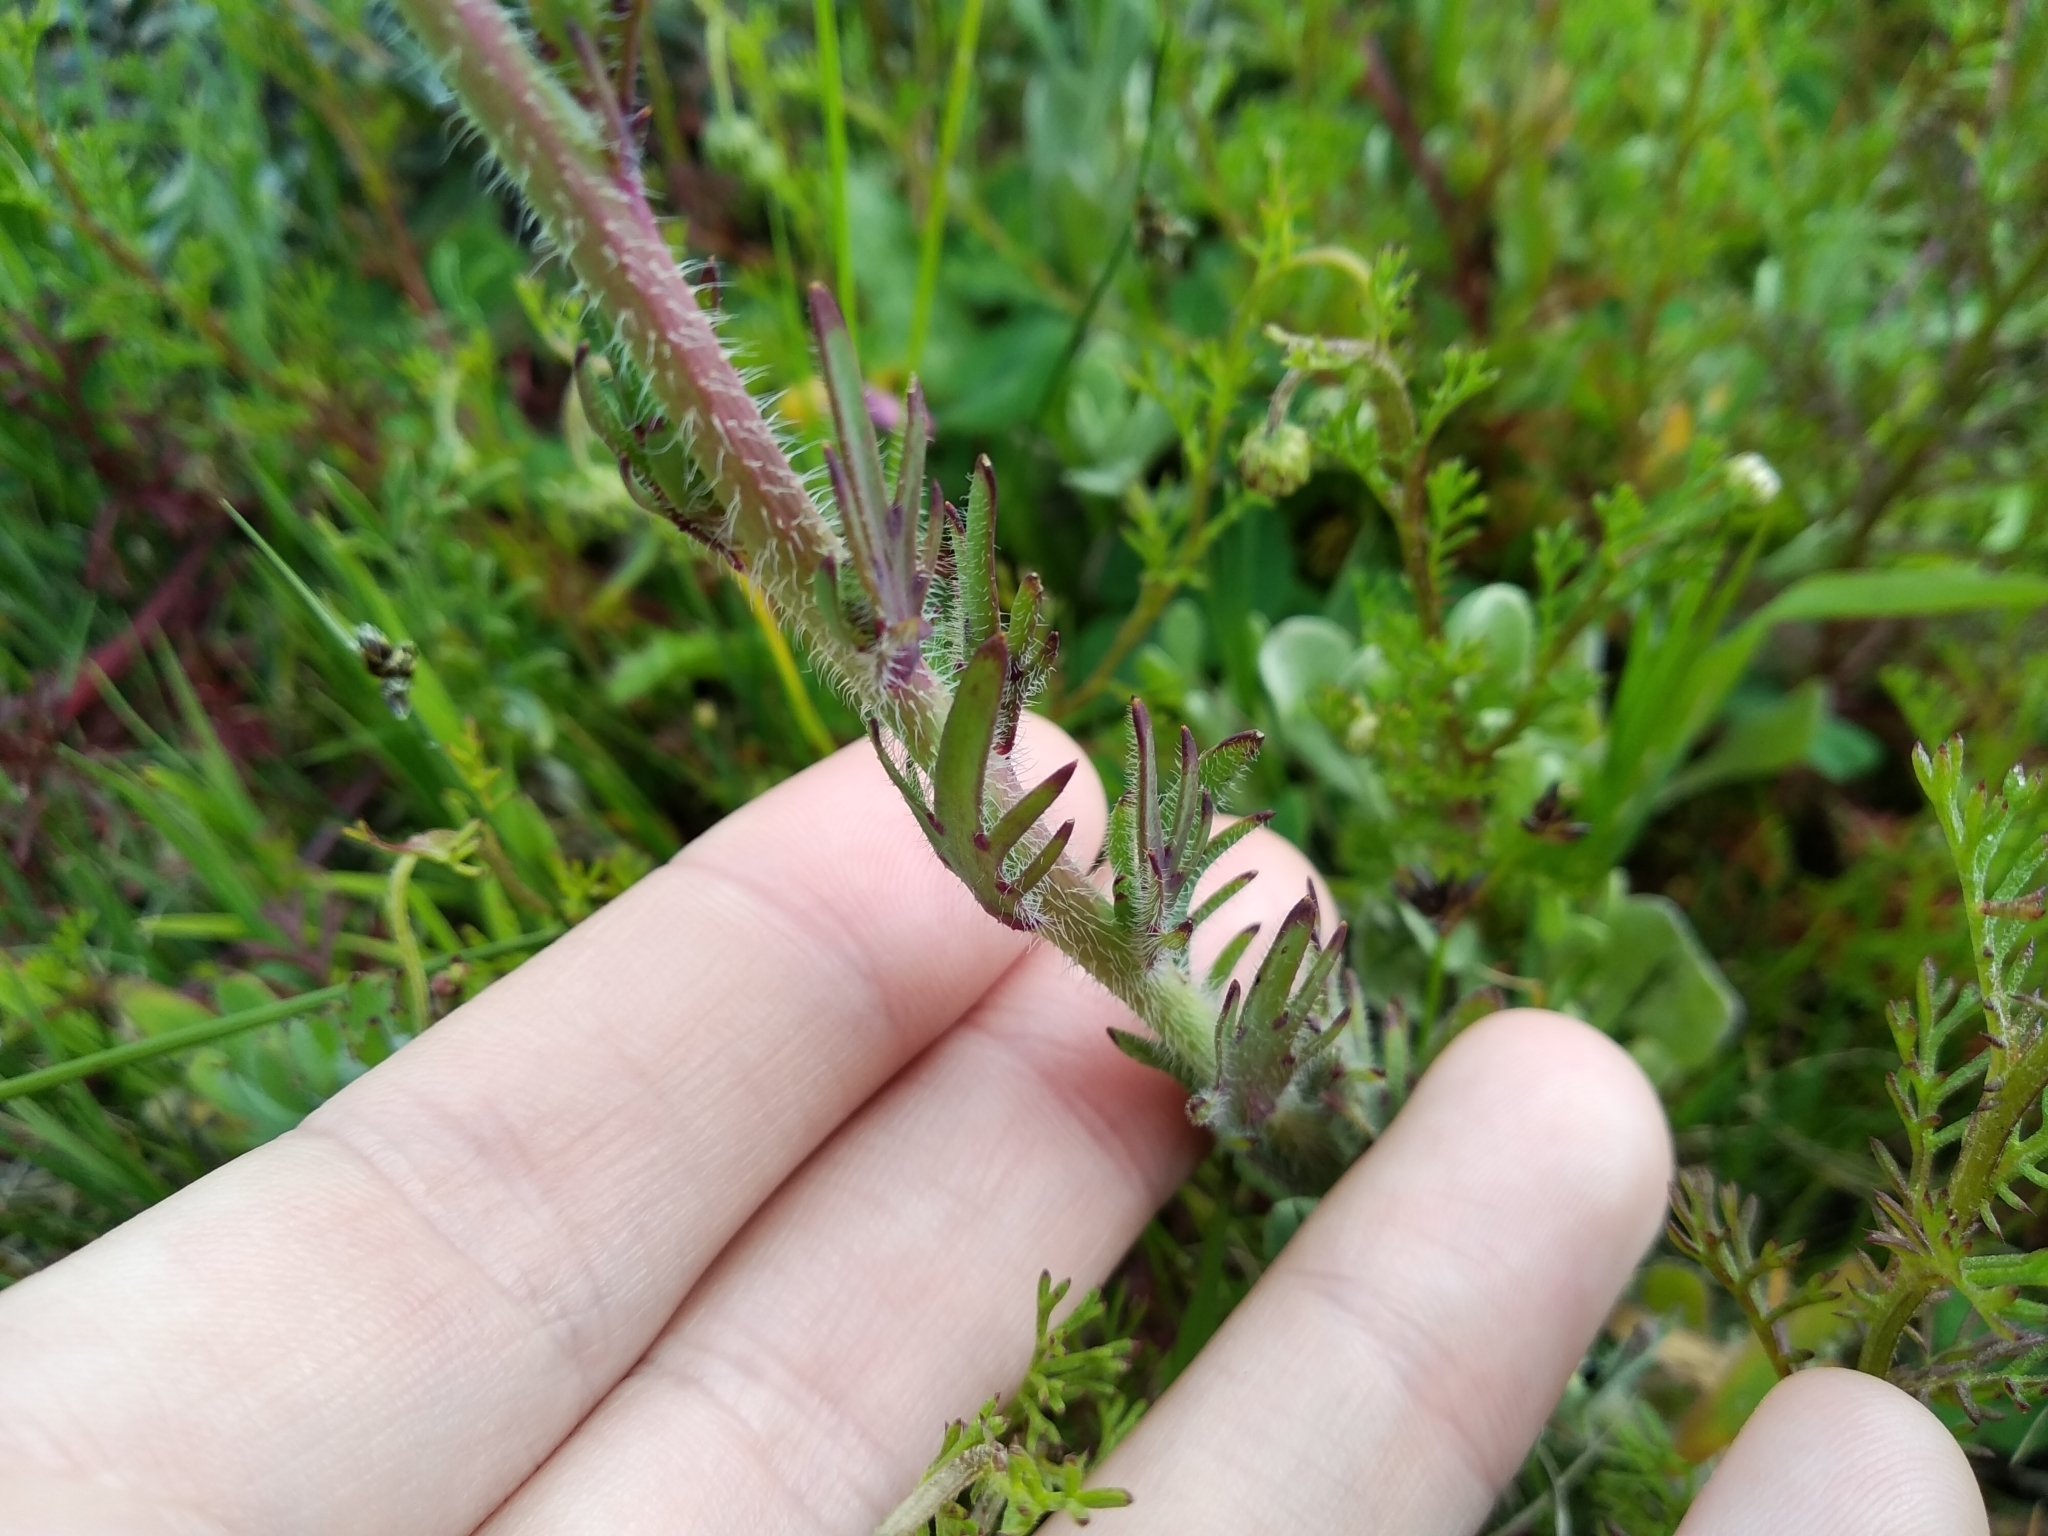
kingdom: Plantae
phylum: Tracheophyta
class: Magnoliopsida
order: Brassicales
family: Brassicaceae
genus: Heliophila
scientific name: Heliophila africana
